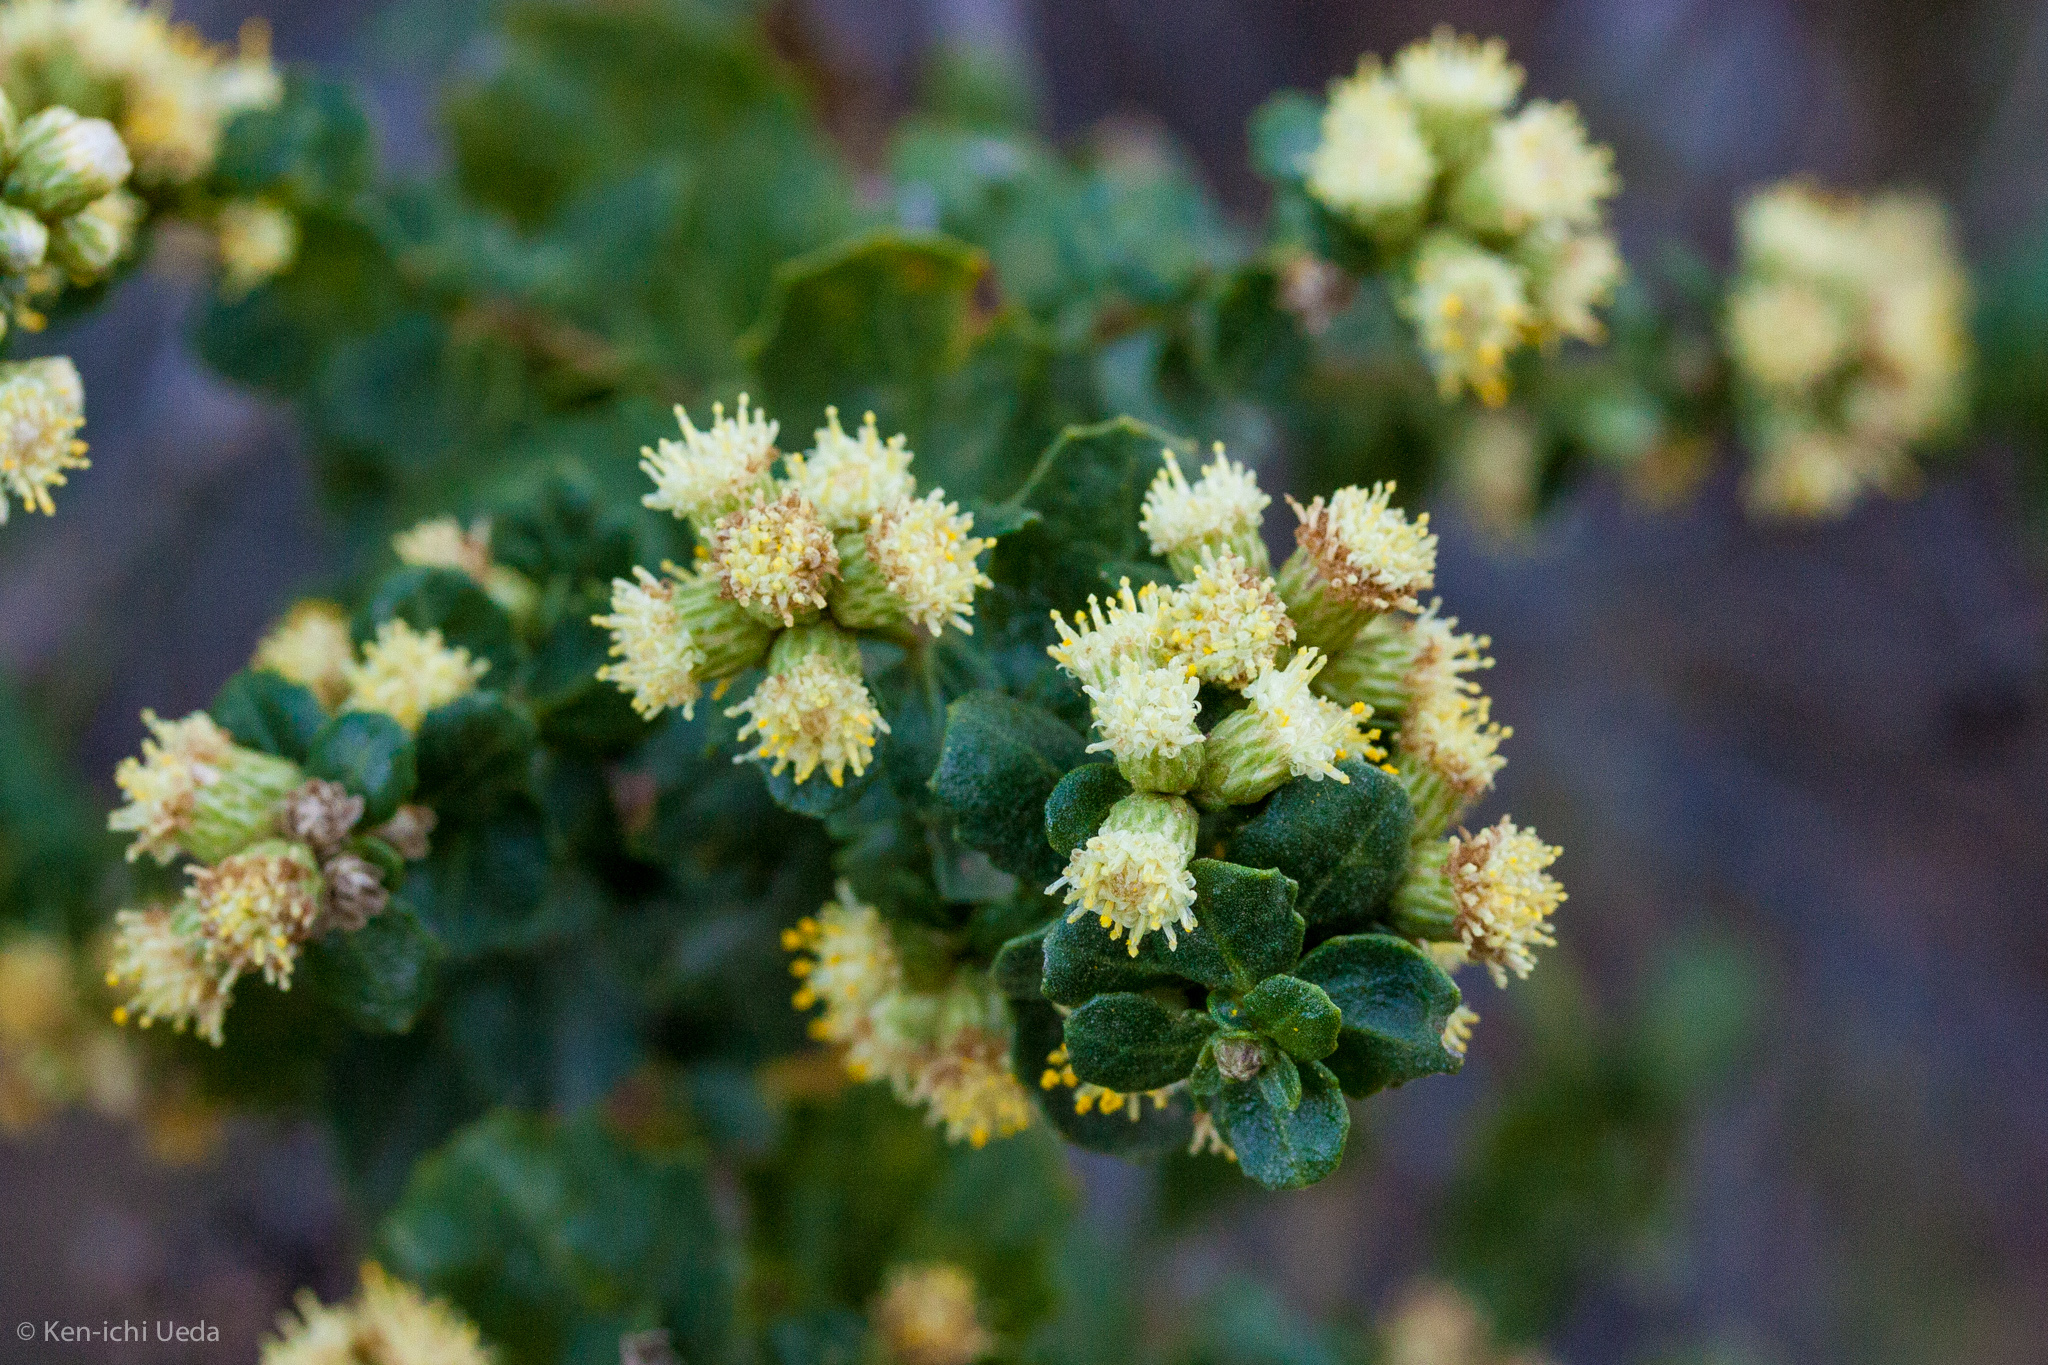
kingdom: Plantae
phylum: Tracheophyta
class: Magnoliopsida
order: Asterales
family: Asteraceae
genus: Baccharis
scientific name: Baccharis pilularis
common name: Coyotebrush
